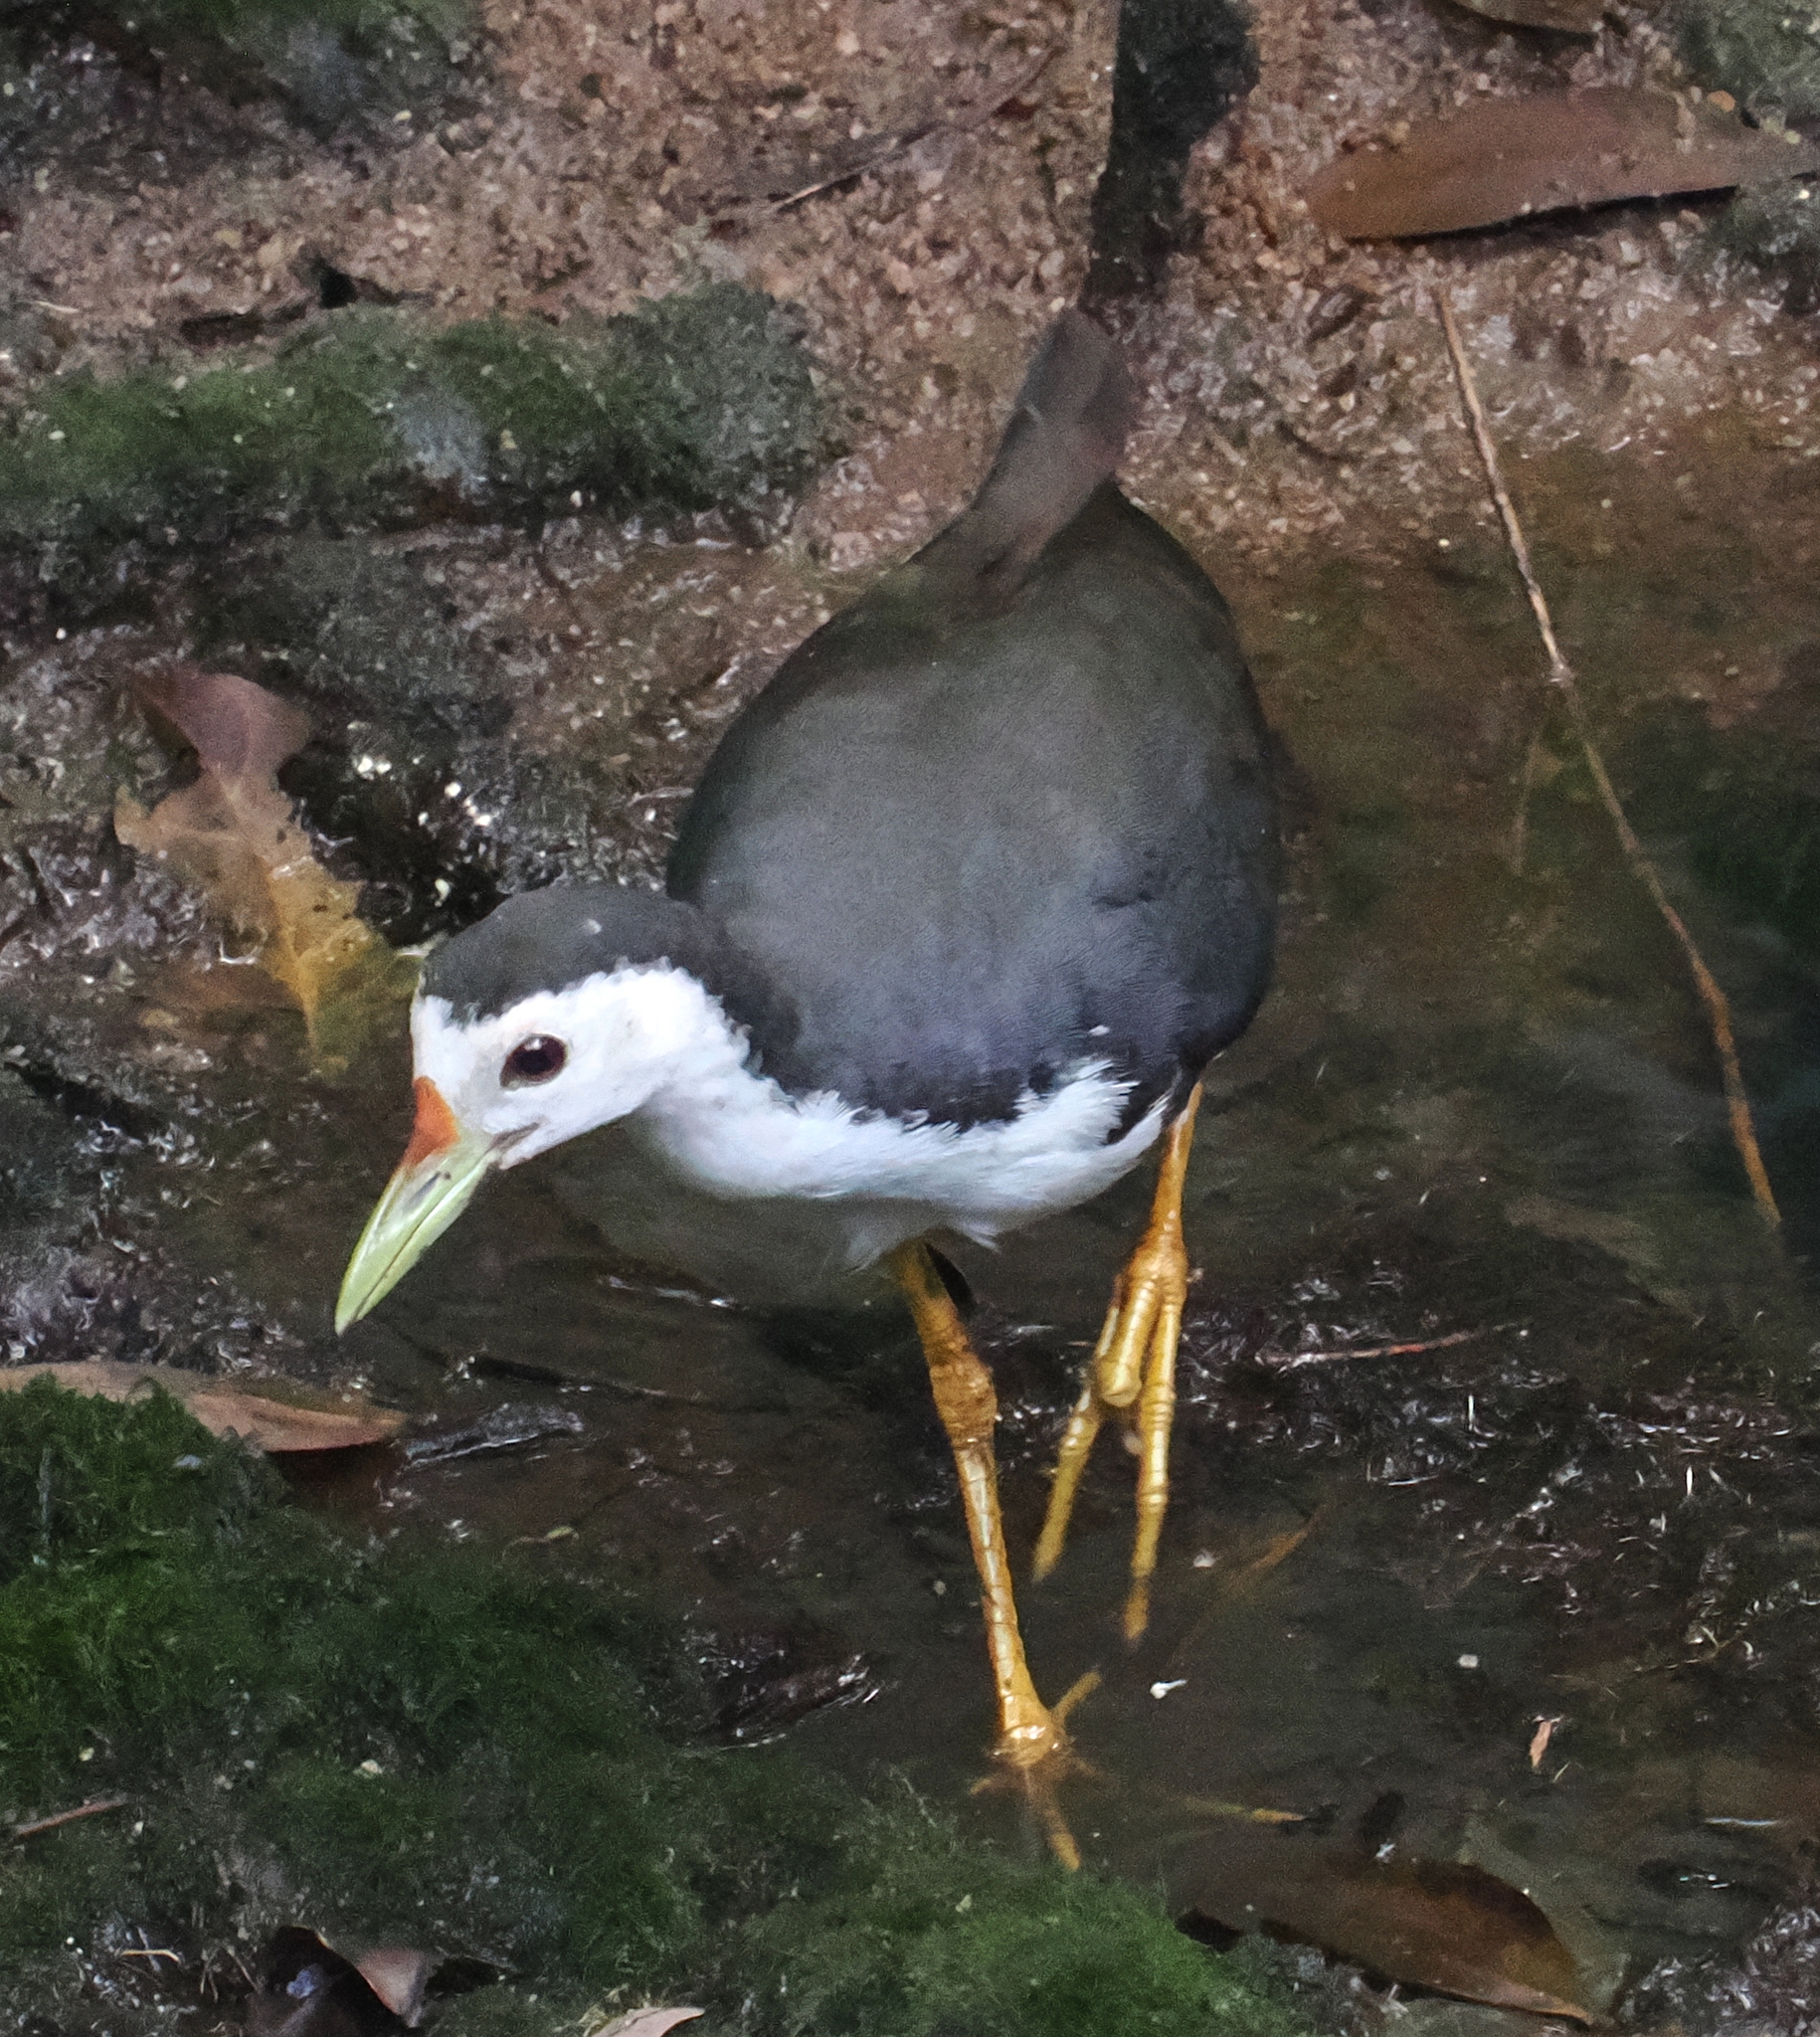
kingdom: Animalia
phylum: Chordata
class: Aves
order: Gruiformes
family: Rallidae
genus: Amaurornis
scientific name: Amaurornis phoenicurus
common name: White-breasted waterhen
